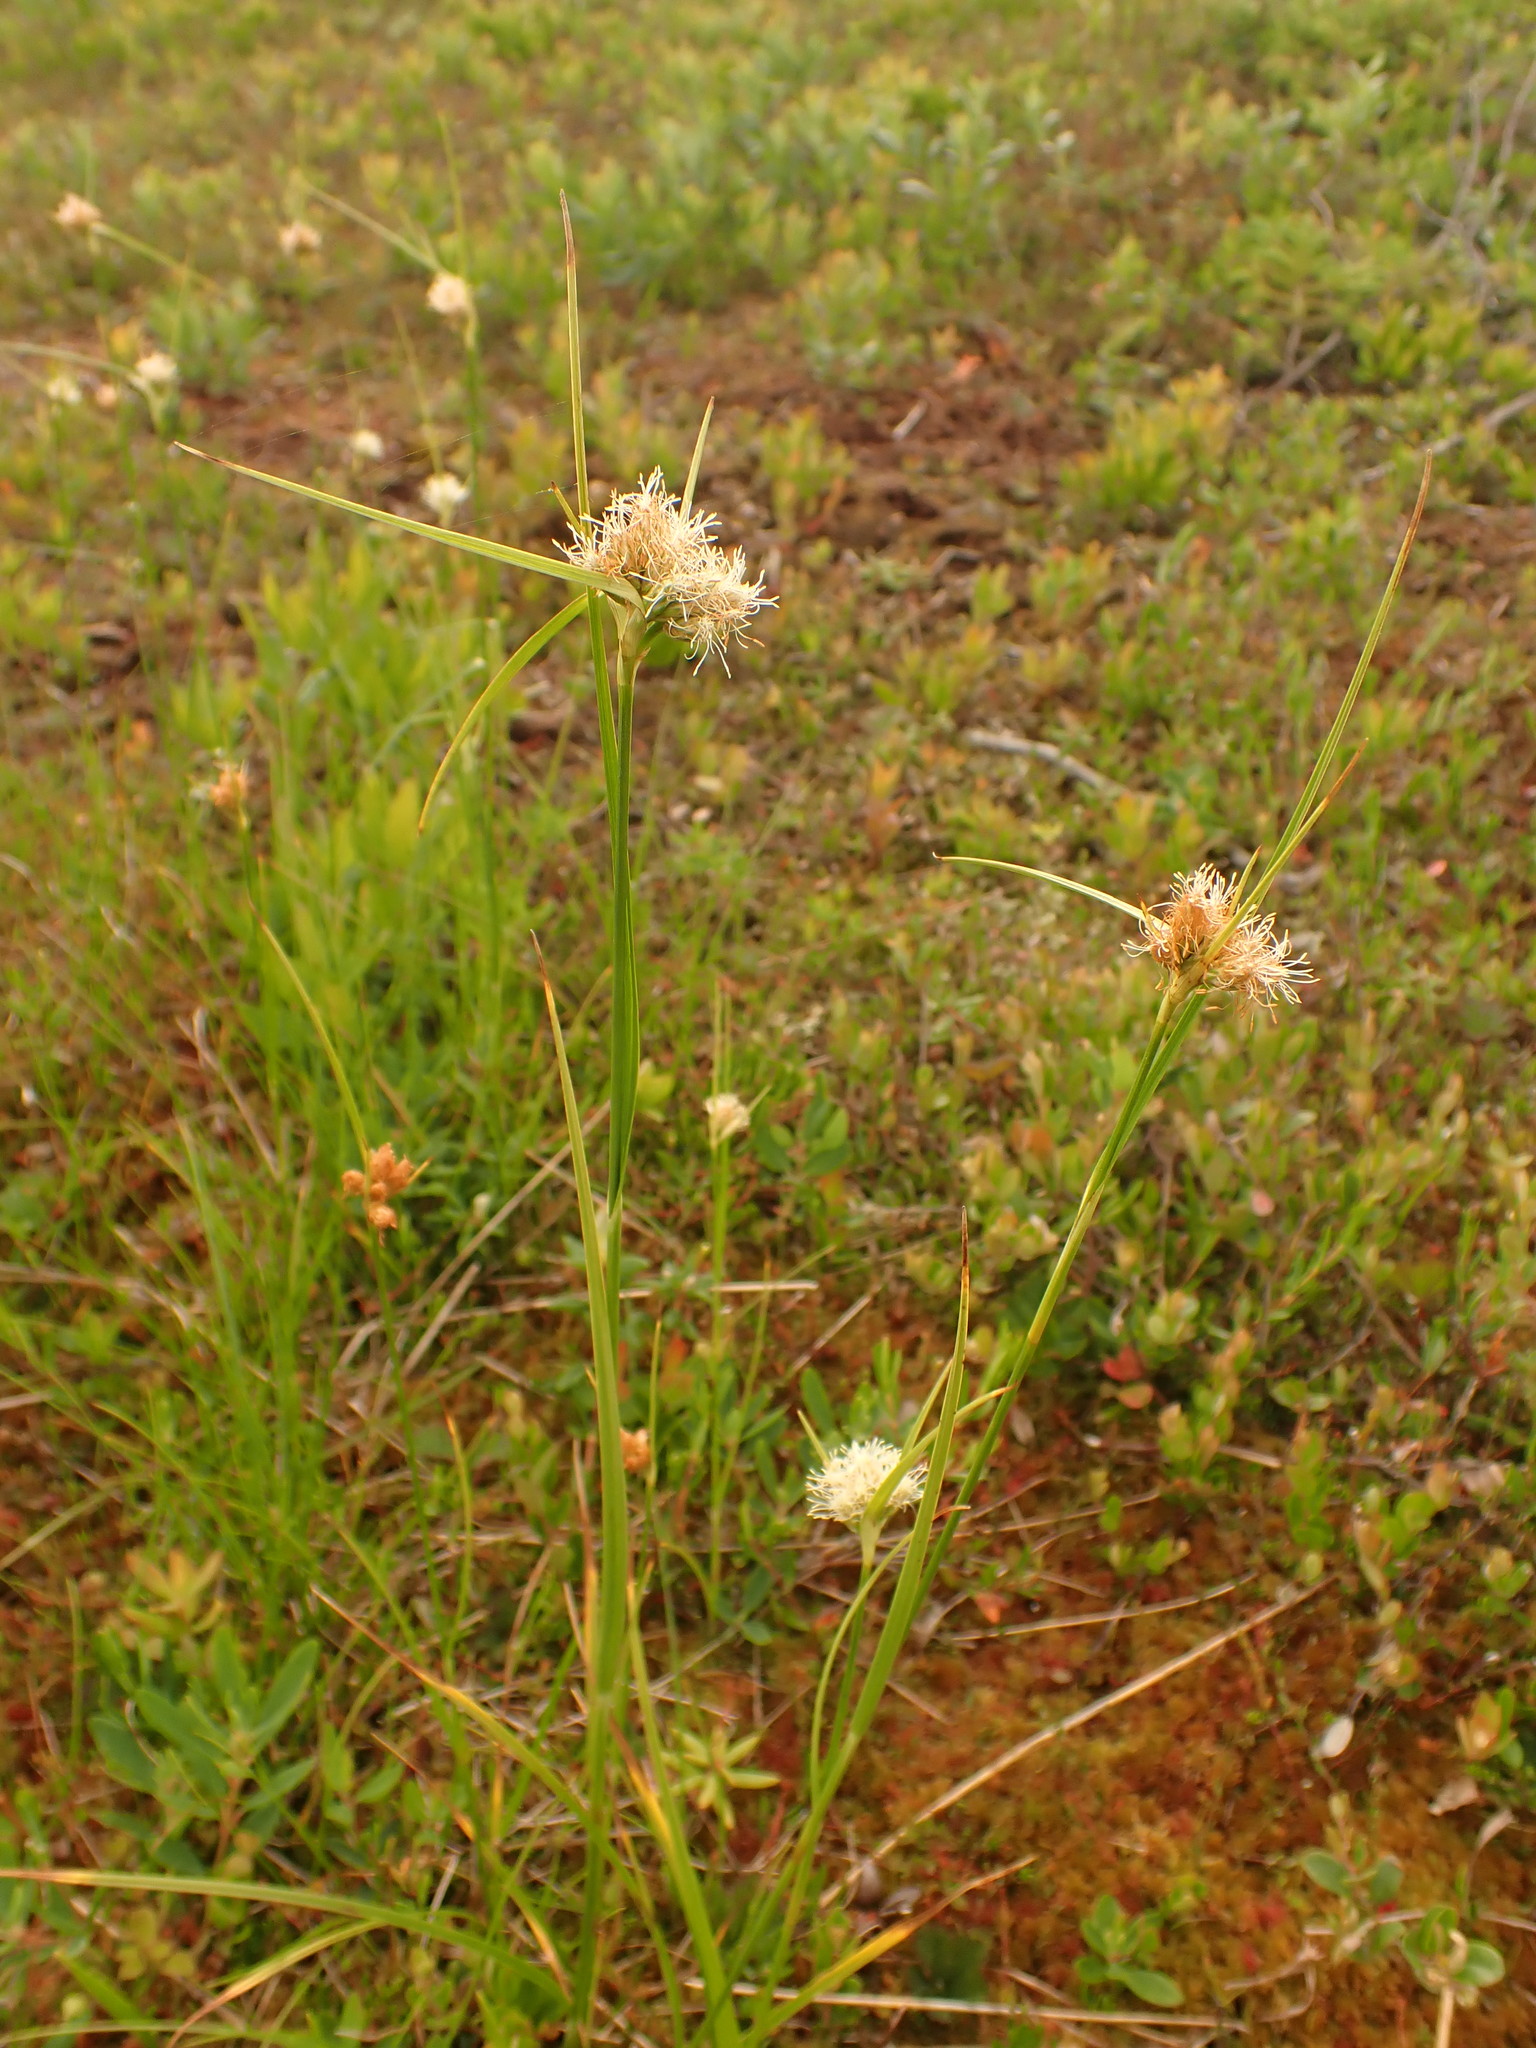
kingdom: Plantae
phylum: Tracheophyta
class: Liliopsida
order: Poales
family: Cyperaceae
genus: Eriophorum
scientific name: Eriophorum virginicum
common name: Tawny cottongrass
